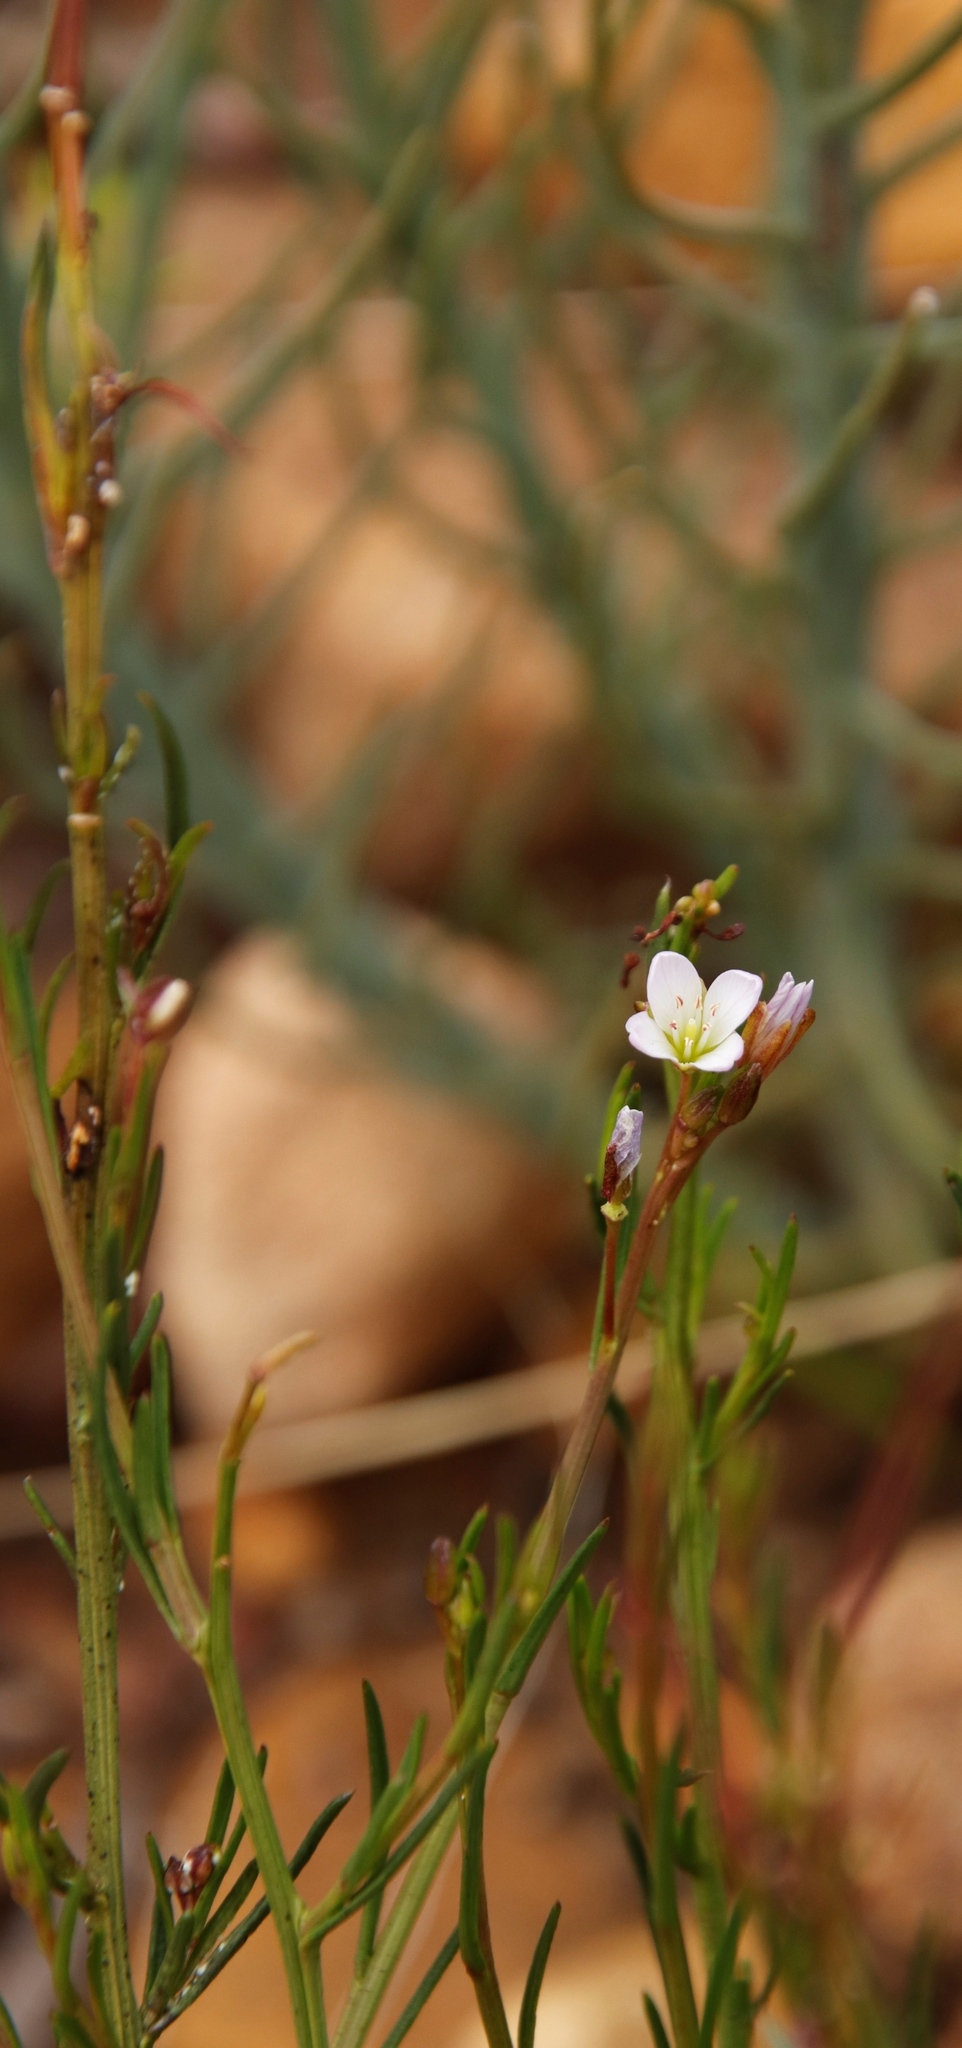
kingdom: Plantae
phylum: Tracheophyta
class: Magnoliopsida
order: Brassicales
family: Brassicaceae
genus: Heliophila
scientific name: Heliophila scoparia
